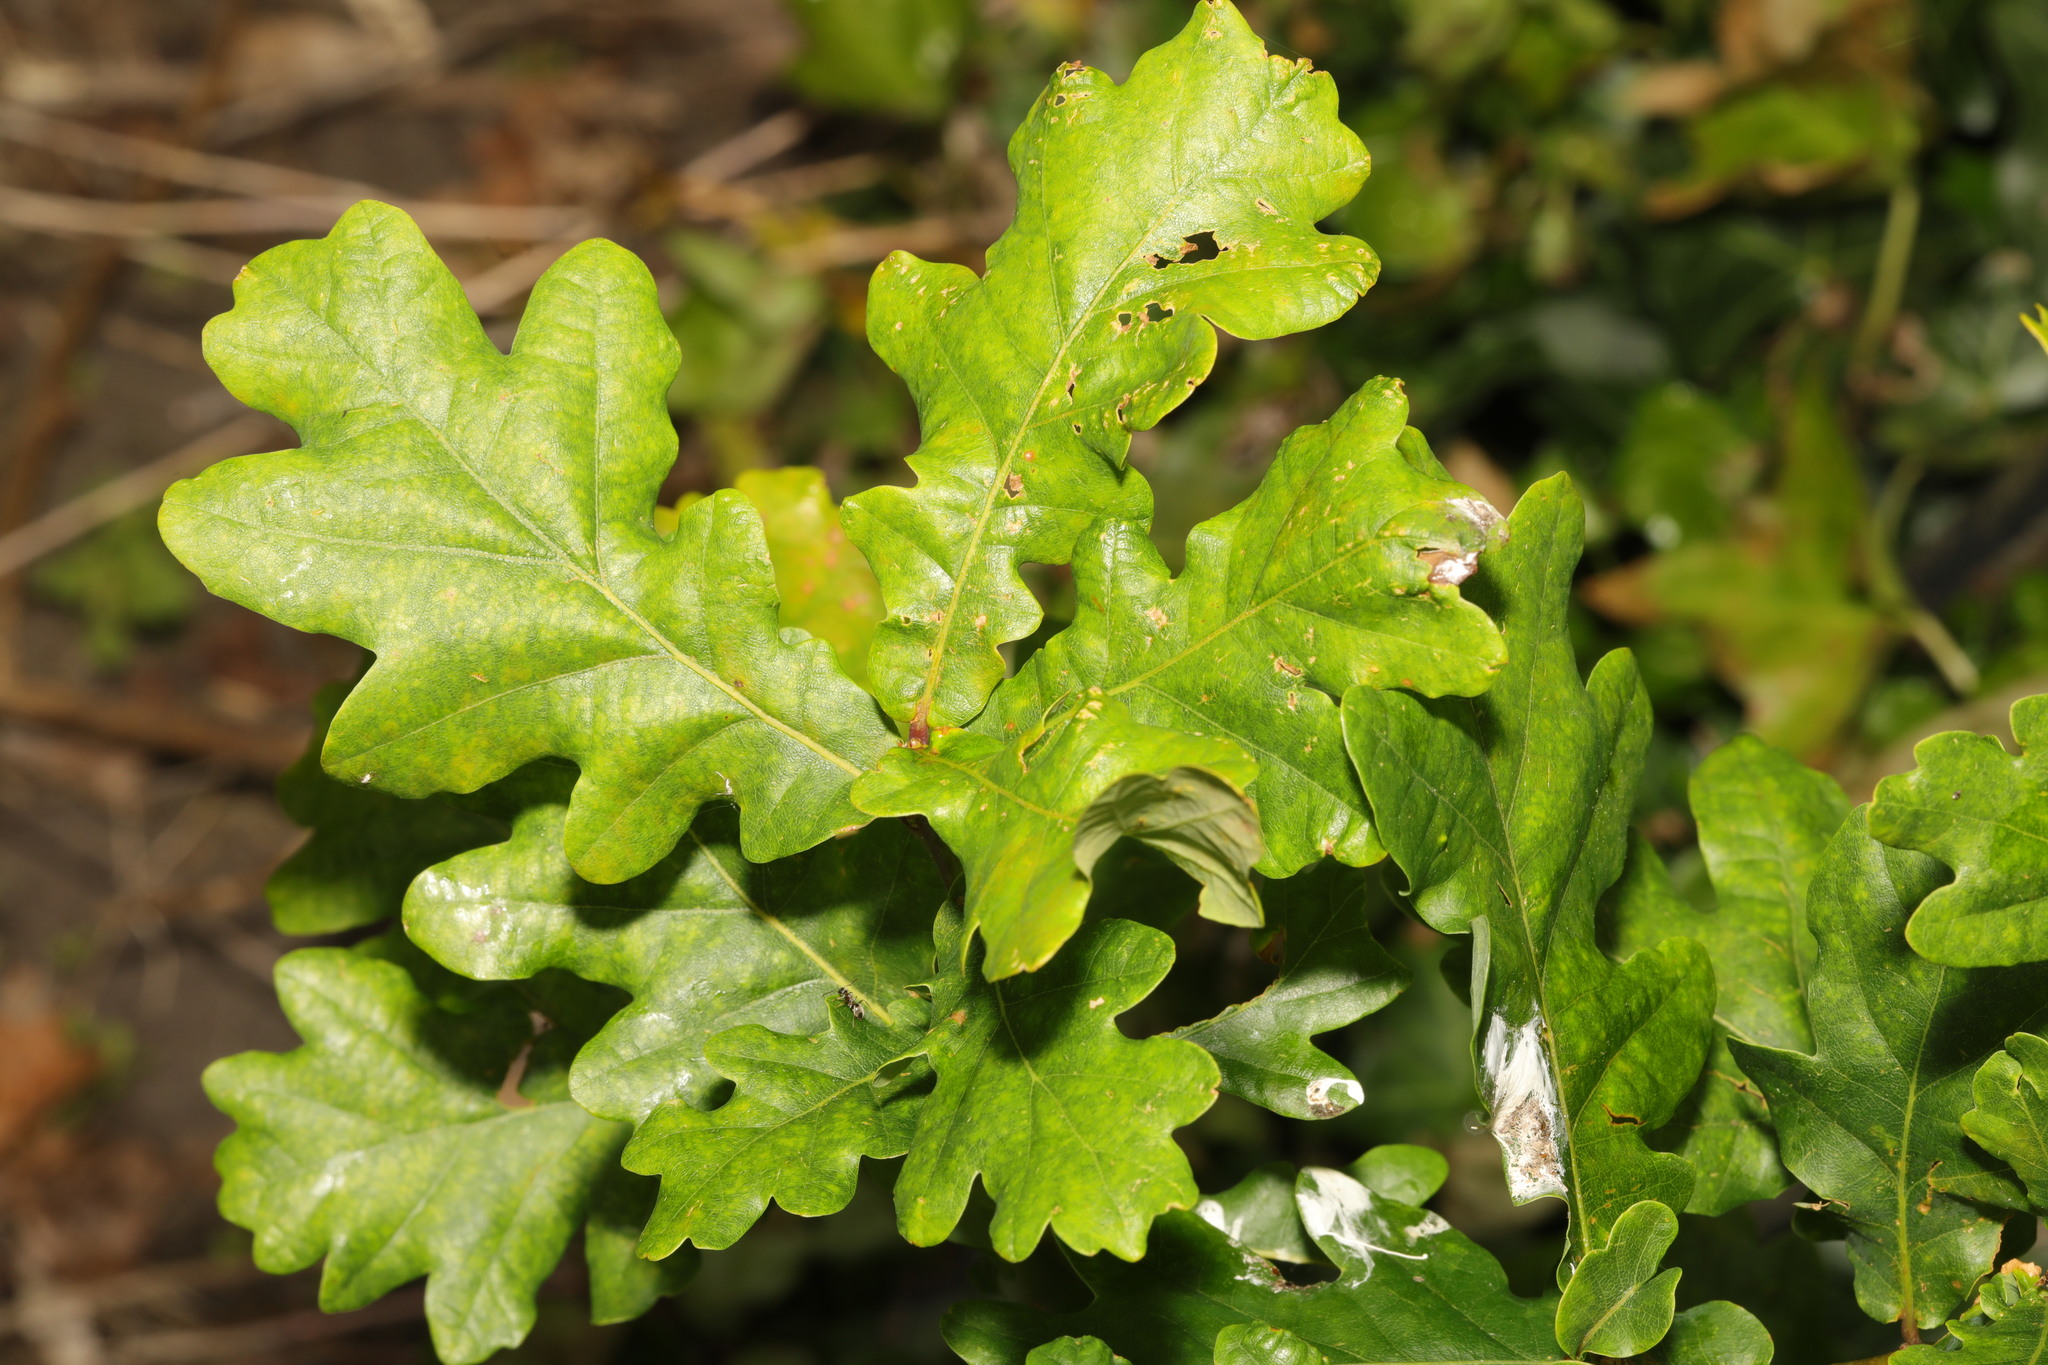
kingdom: Plantae
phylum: Tracheophyta
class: Magnoliopsida
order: Fagales
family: Fagaceae
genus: Quercus
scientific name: Quercus robur
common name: Pedunculate oak
